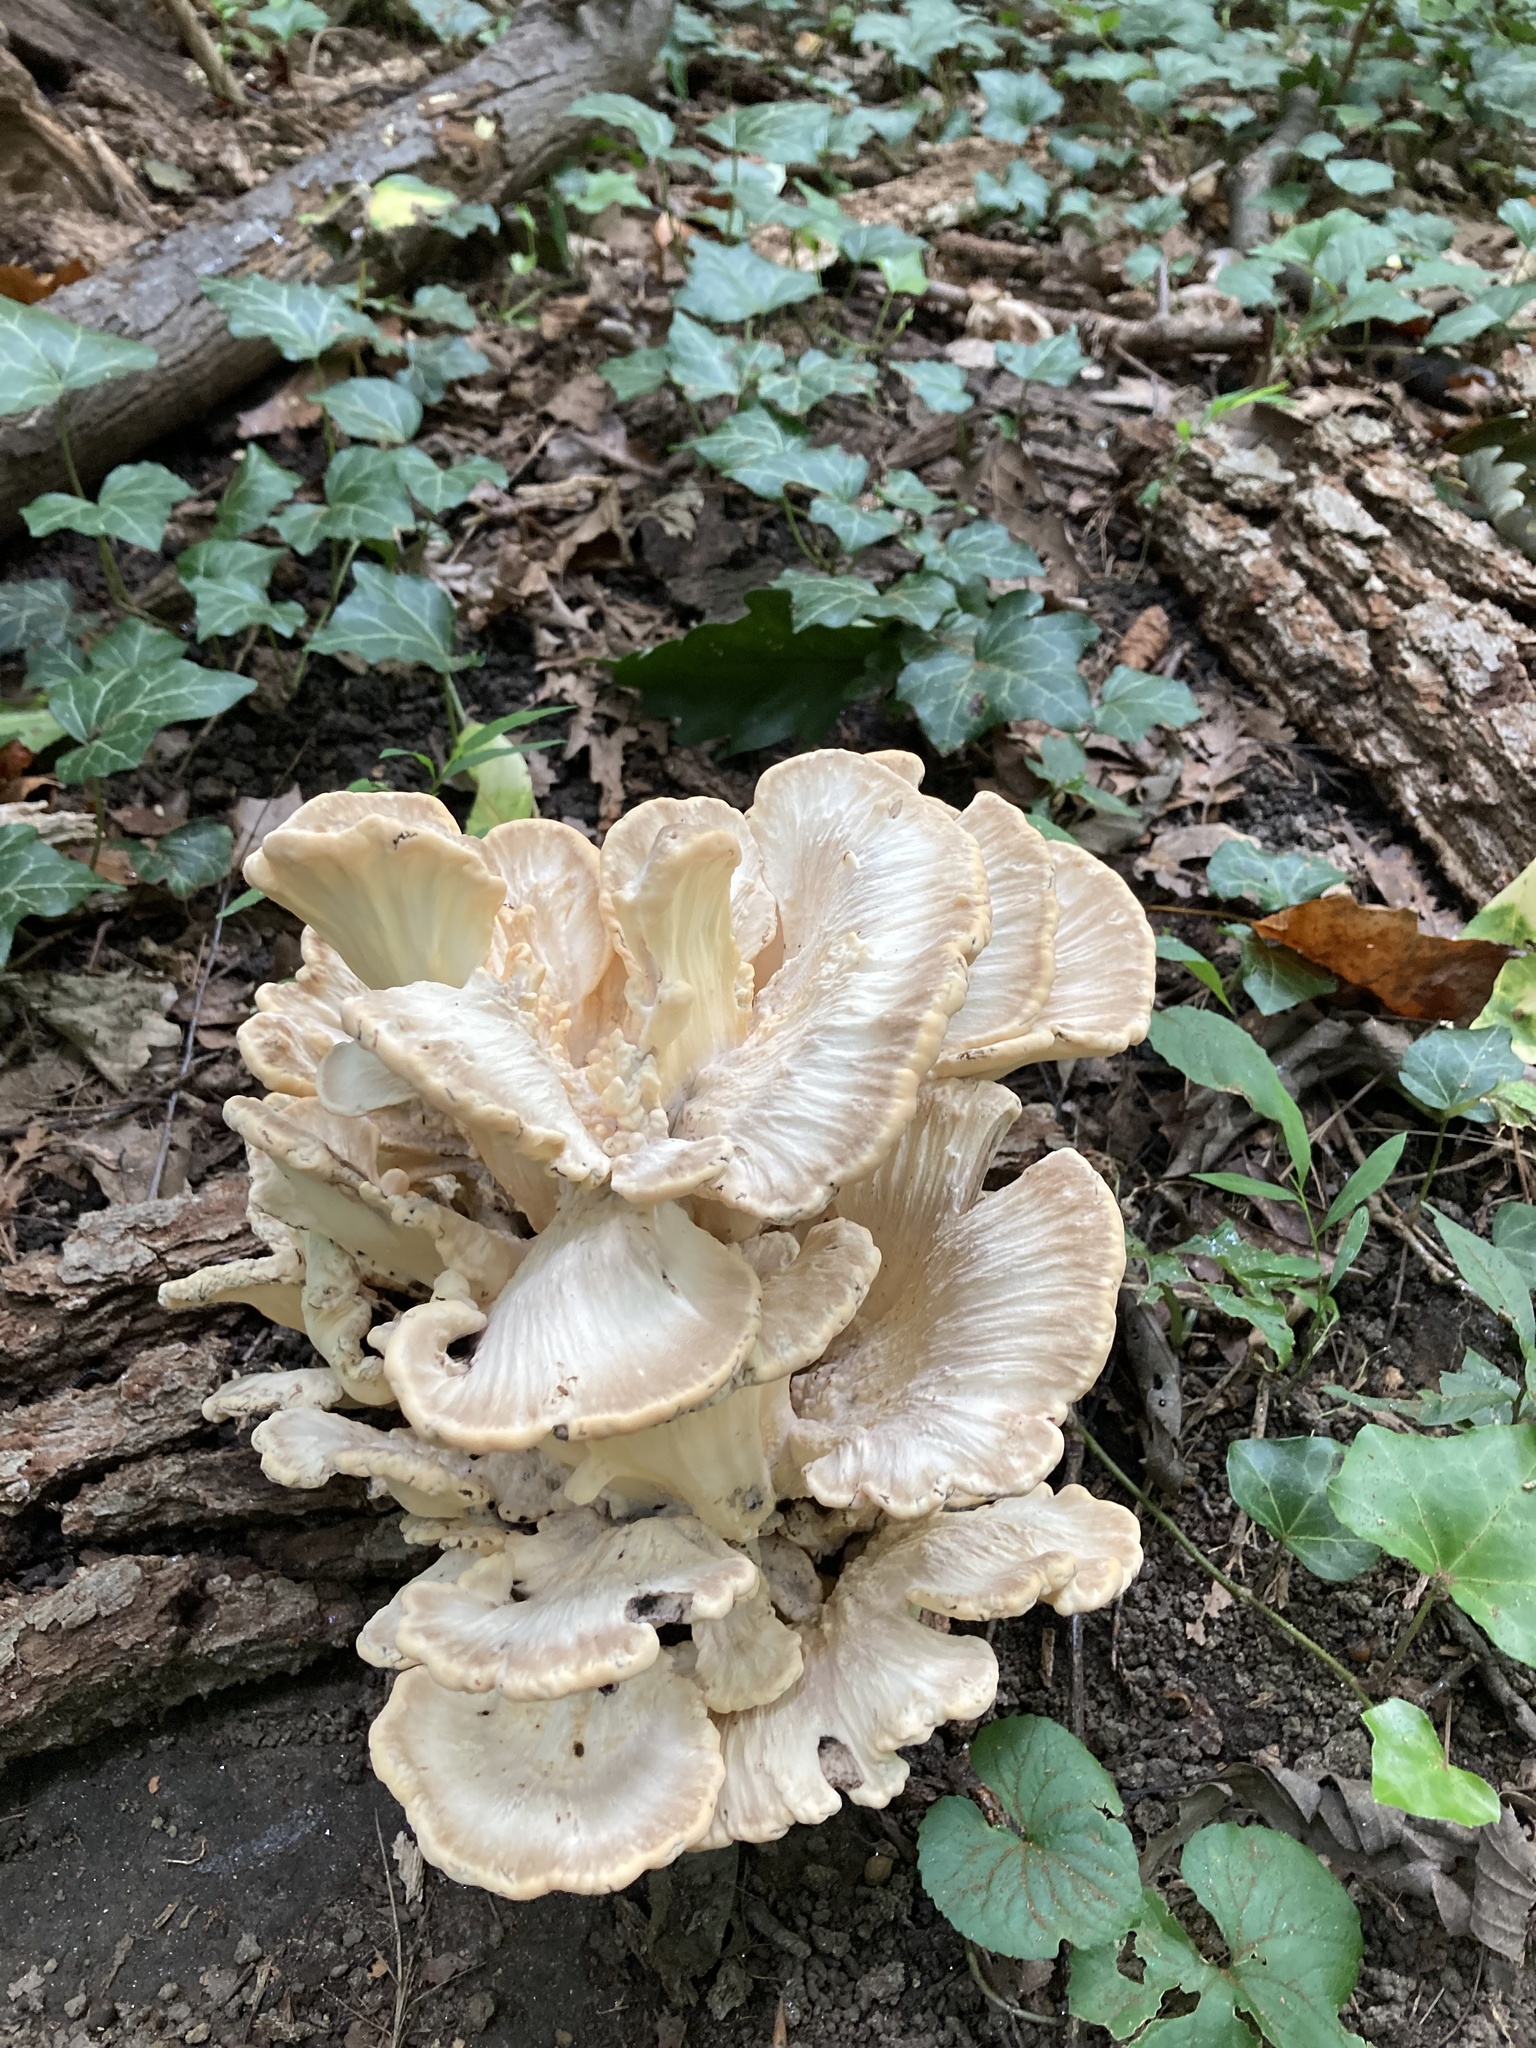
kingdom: Fungi
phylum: Basidiomycota
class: Agaricomycetes
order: Polyporales
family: Meripilaceae
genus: Meripilus
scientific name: Meripilus sumstinei
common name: Black-staining polypore
